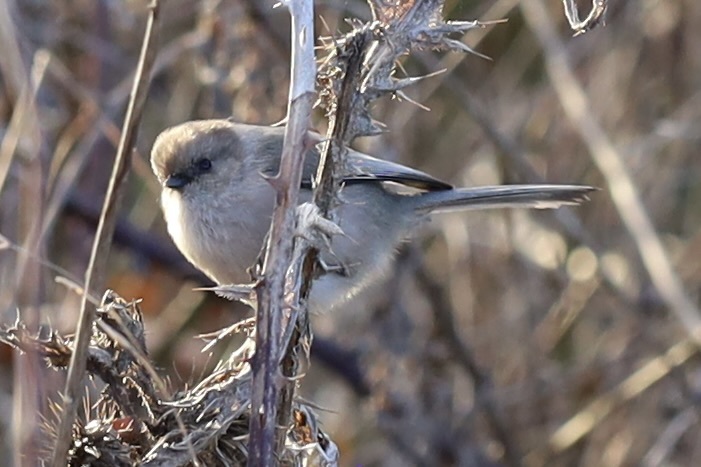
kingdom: Animalia
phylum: Chordata
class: Aves
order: Passeriformes
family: Aegithalidae
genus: Psaltriparus
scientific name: Psaltriparus minimus
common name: American bushtit
